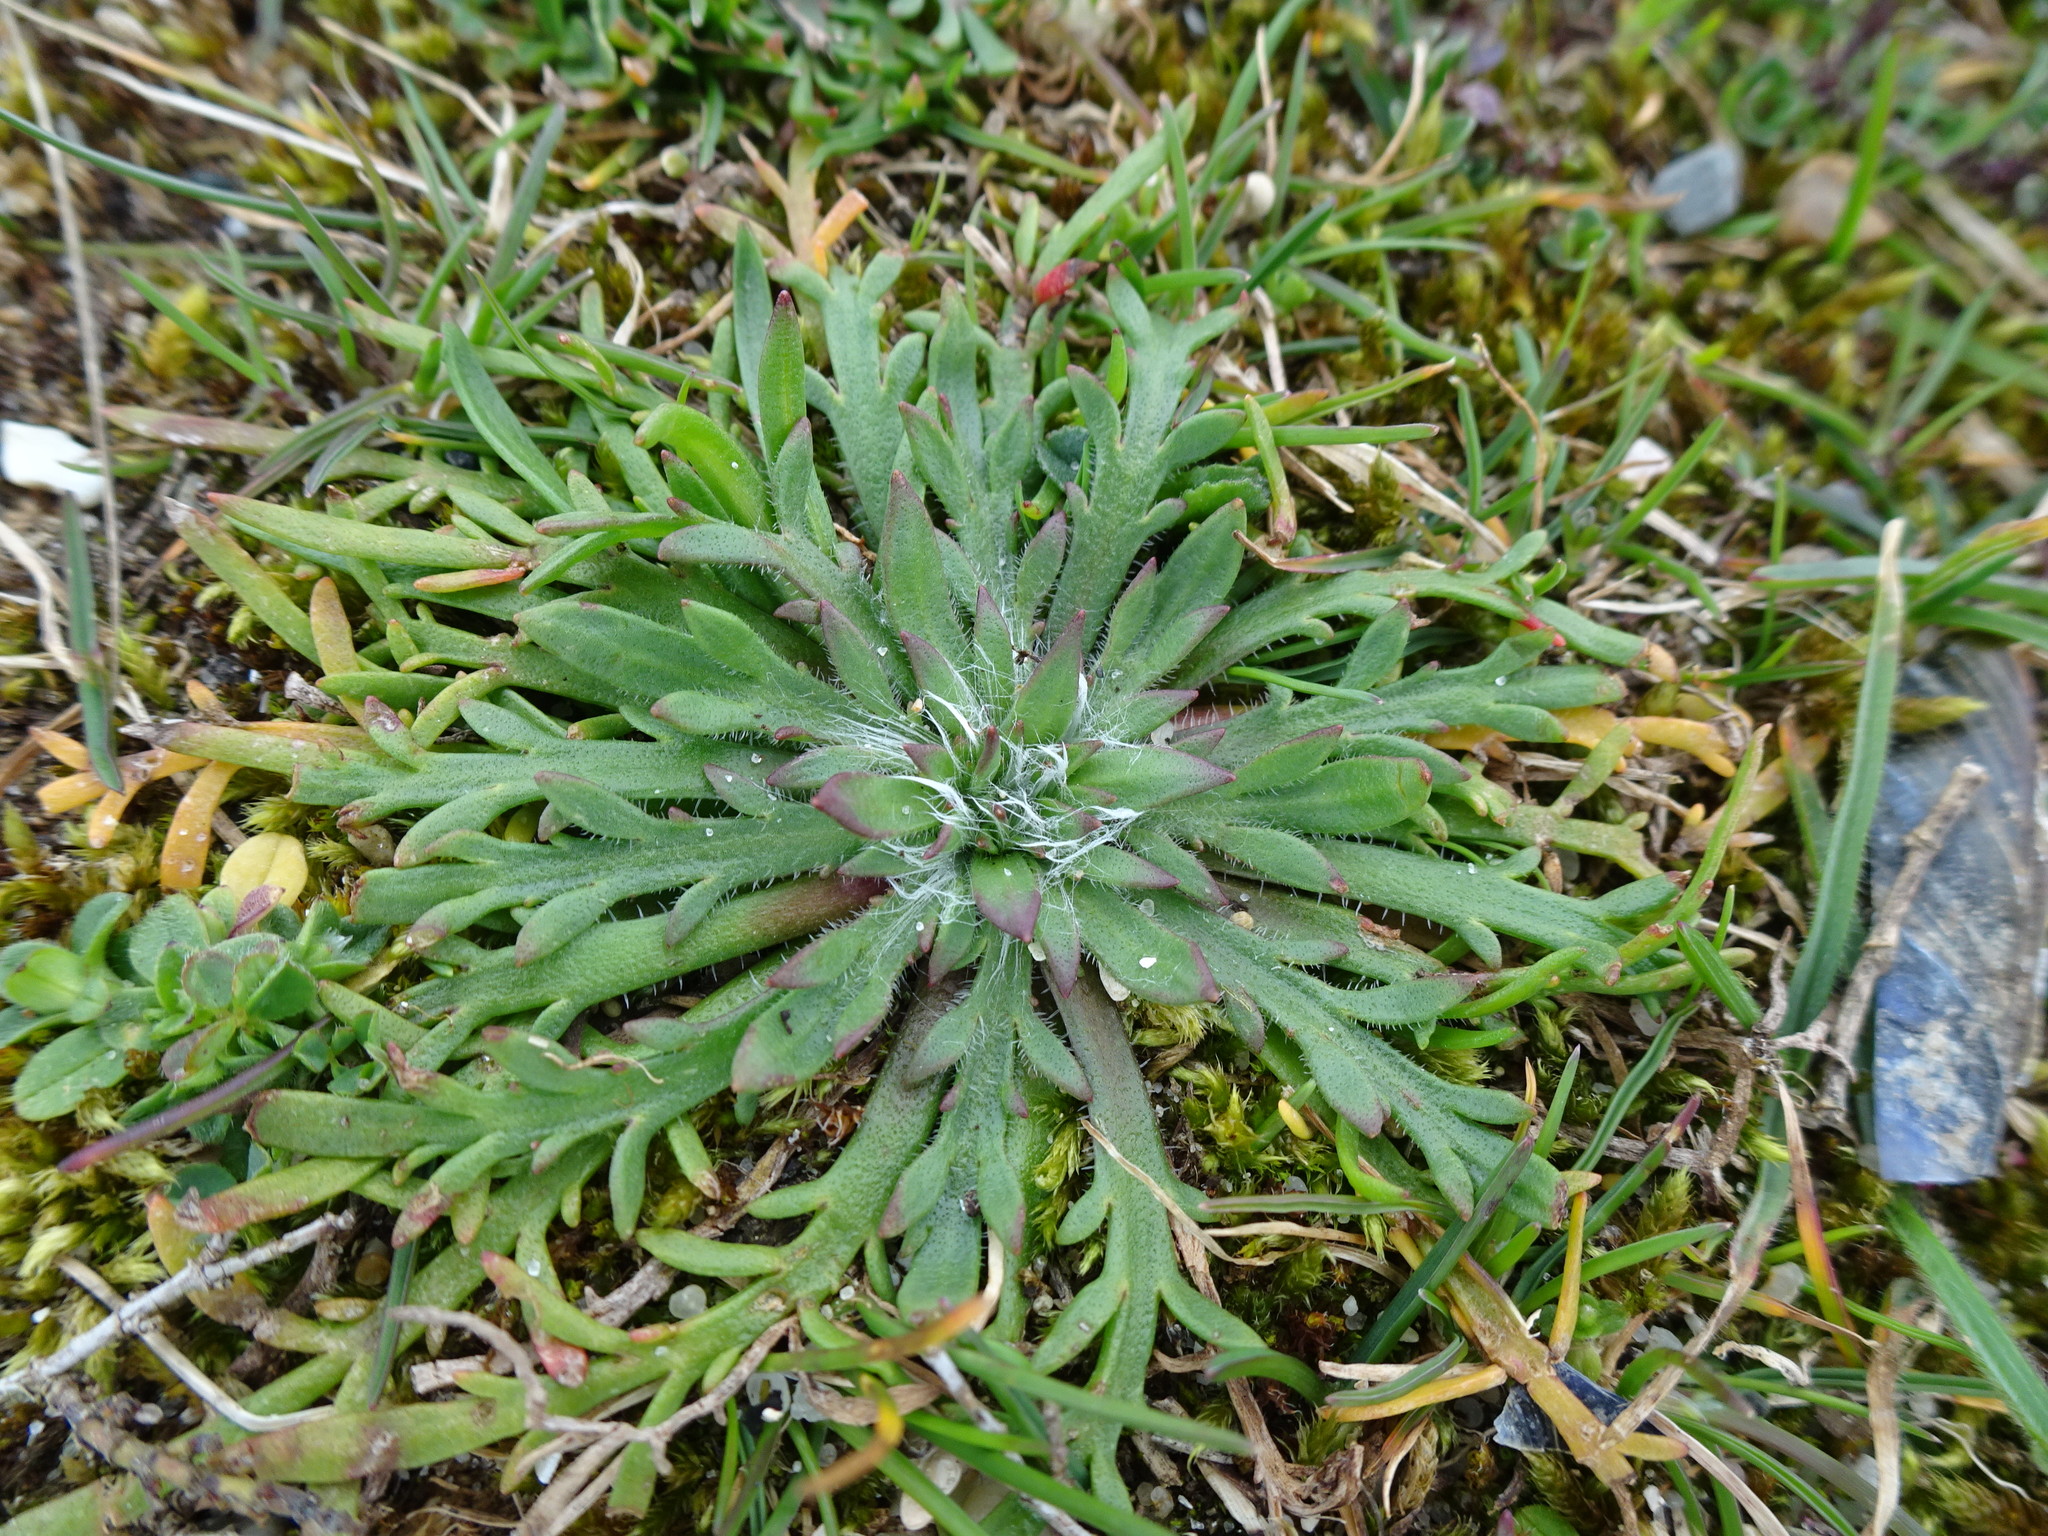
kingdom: Plantae
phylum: Tracheophyta
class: Magnoliopsida
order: Lamiales
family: Plantaginaceae
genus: Plantago
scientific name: Plantago coronopus
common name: Buck's-horn plantain
